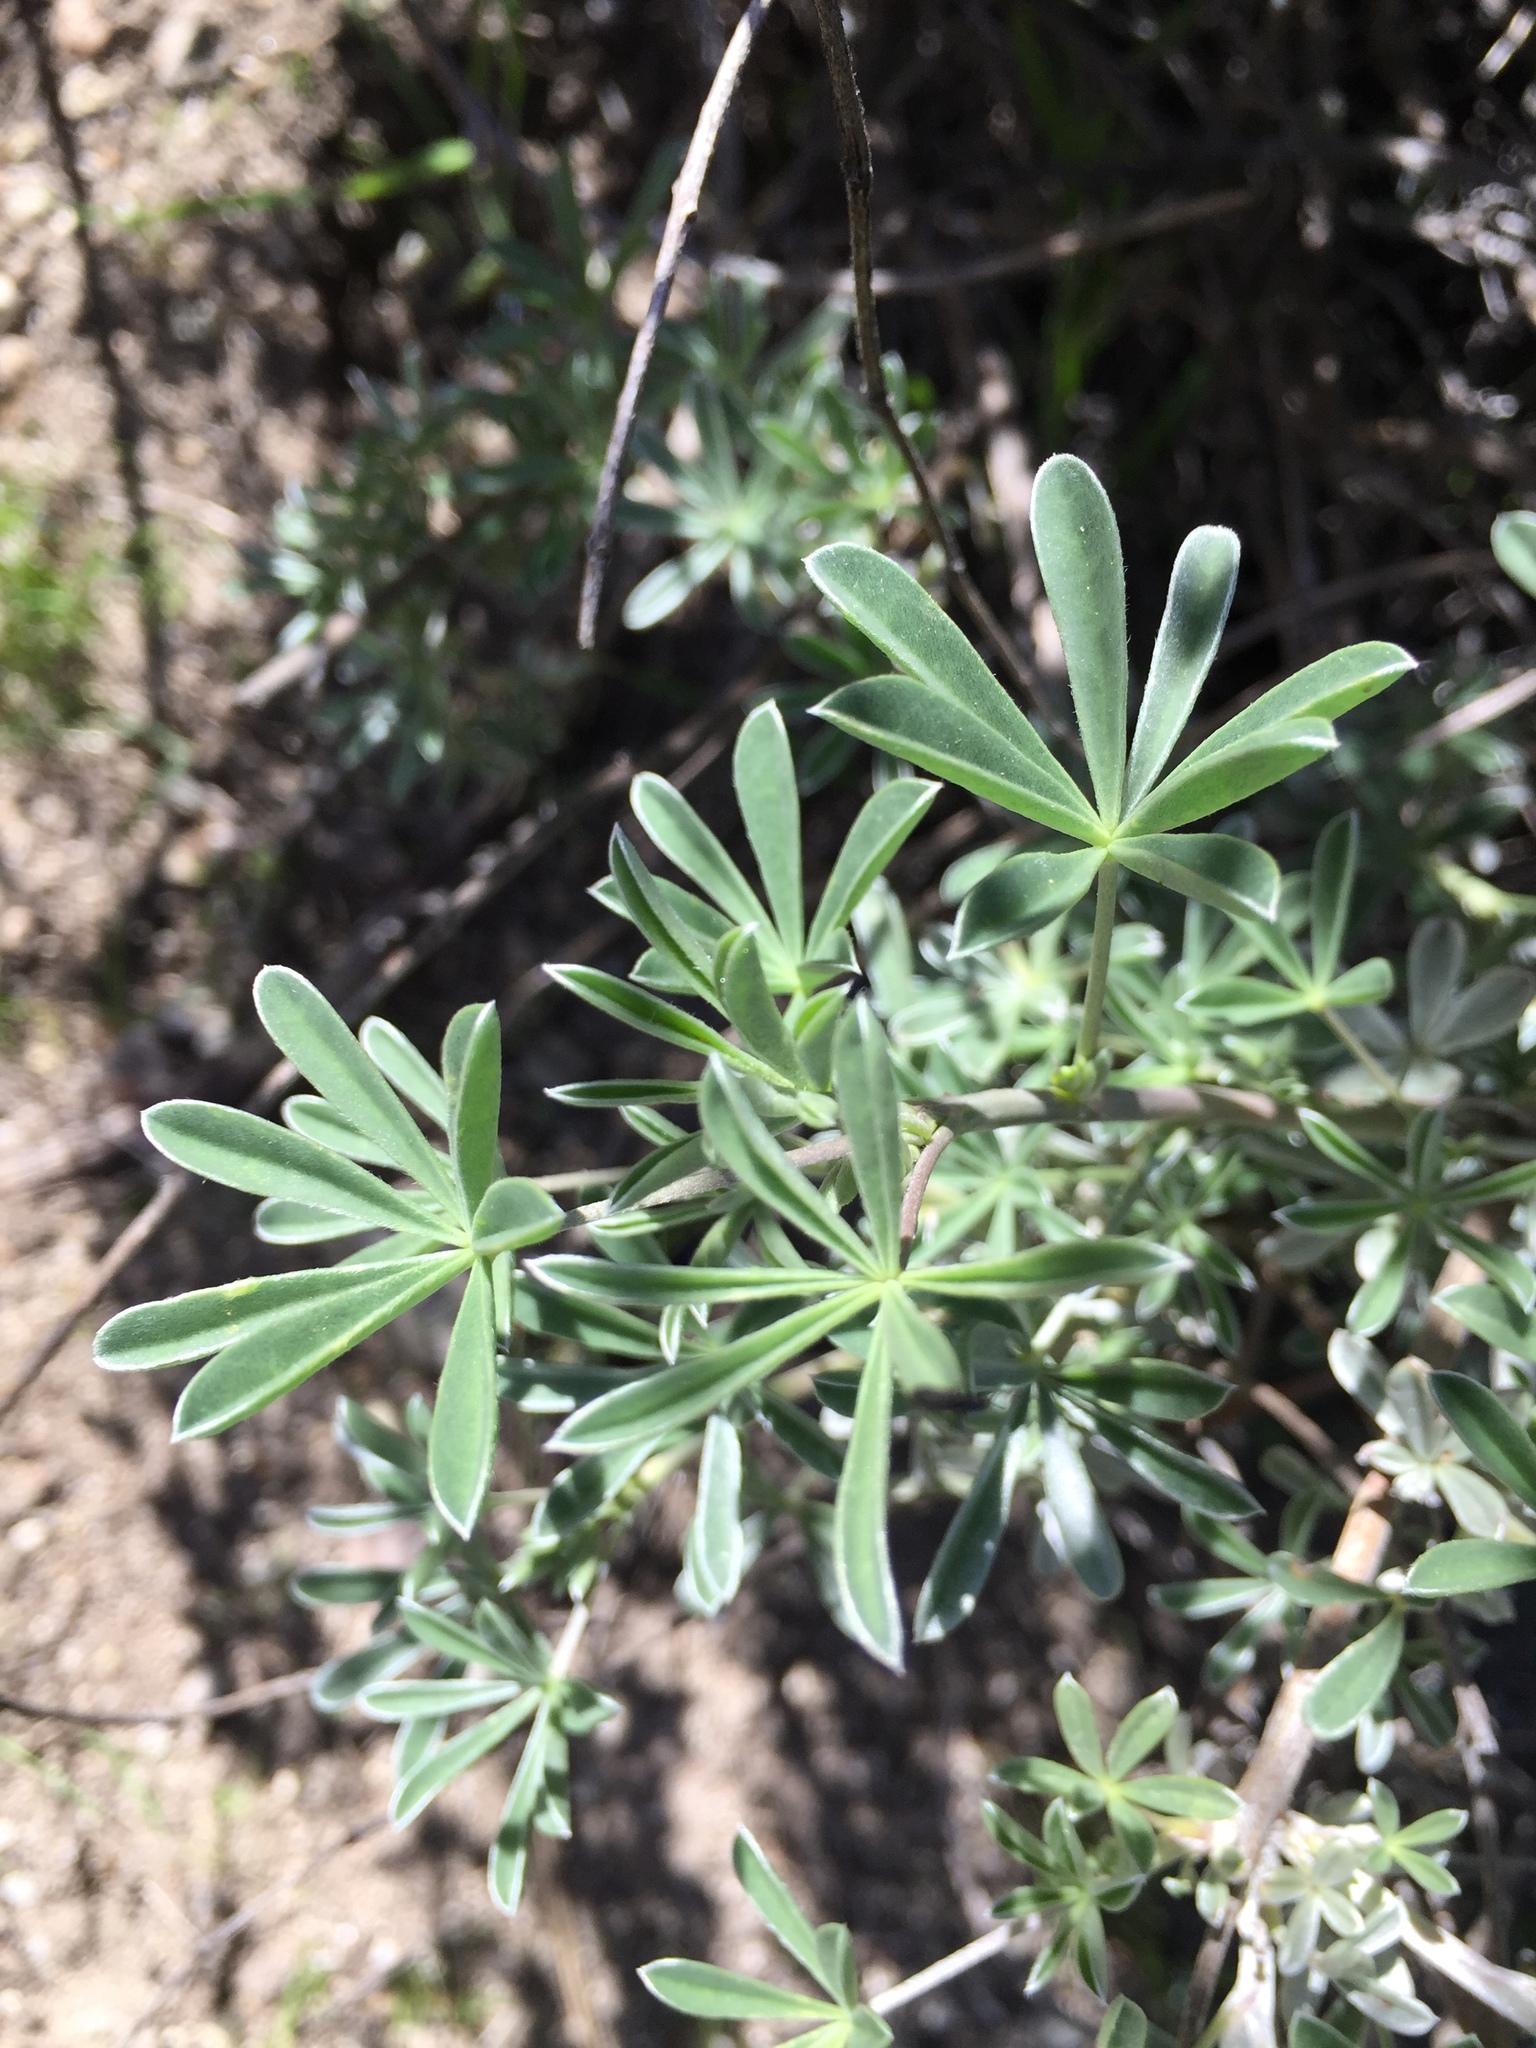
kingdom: Plantae
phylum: Tracheophyta
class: Magnoliopsida
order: Fabales
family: Fabaceae
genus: Lupinus
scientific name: Lupinus albifrons
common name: Foothill lupine
